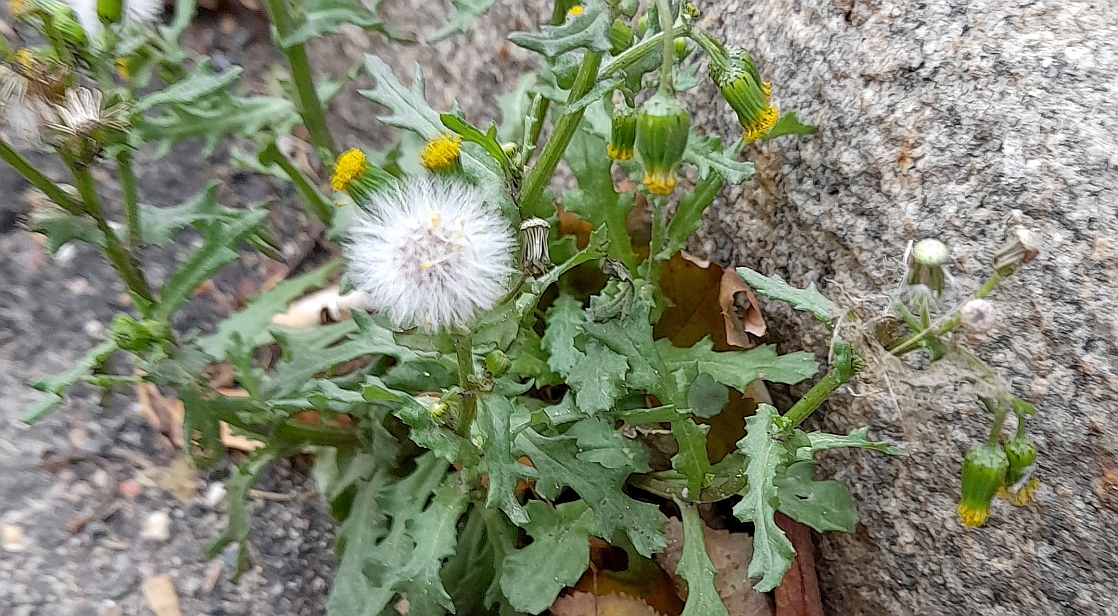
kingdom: Plantae
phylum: Tracheophyta
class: Magnoliopsida
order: Asterales
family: Asteraceae
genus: Senecio
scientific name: Senecio vulgaris
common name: Old-man-in-the-spring
